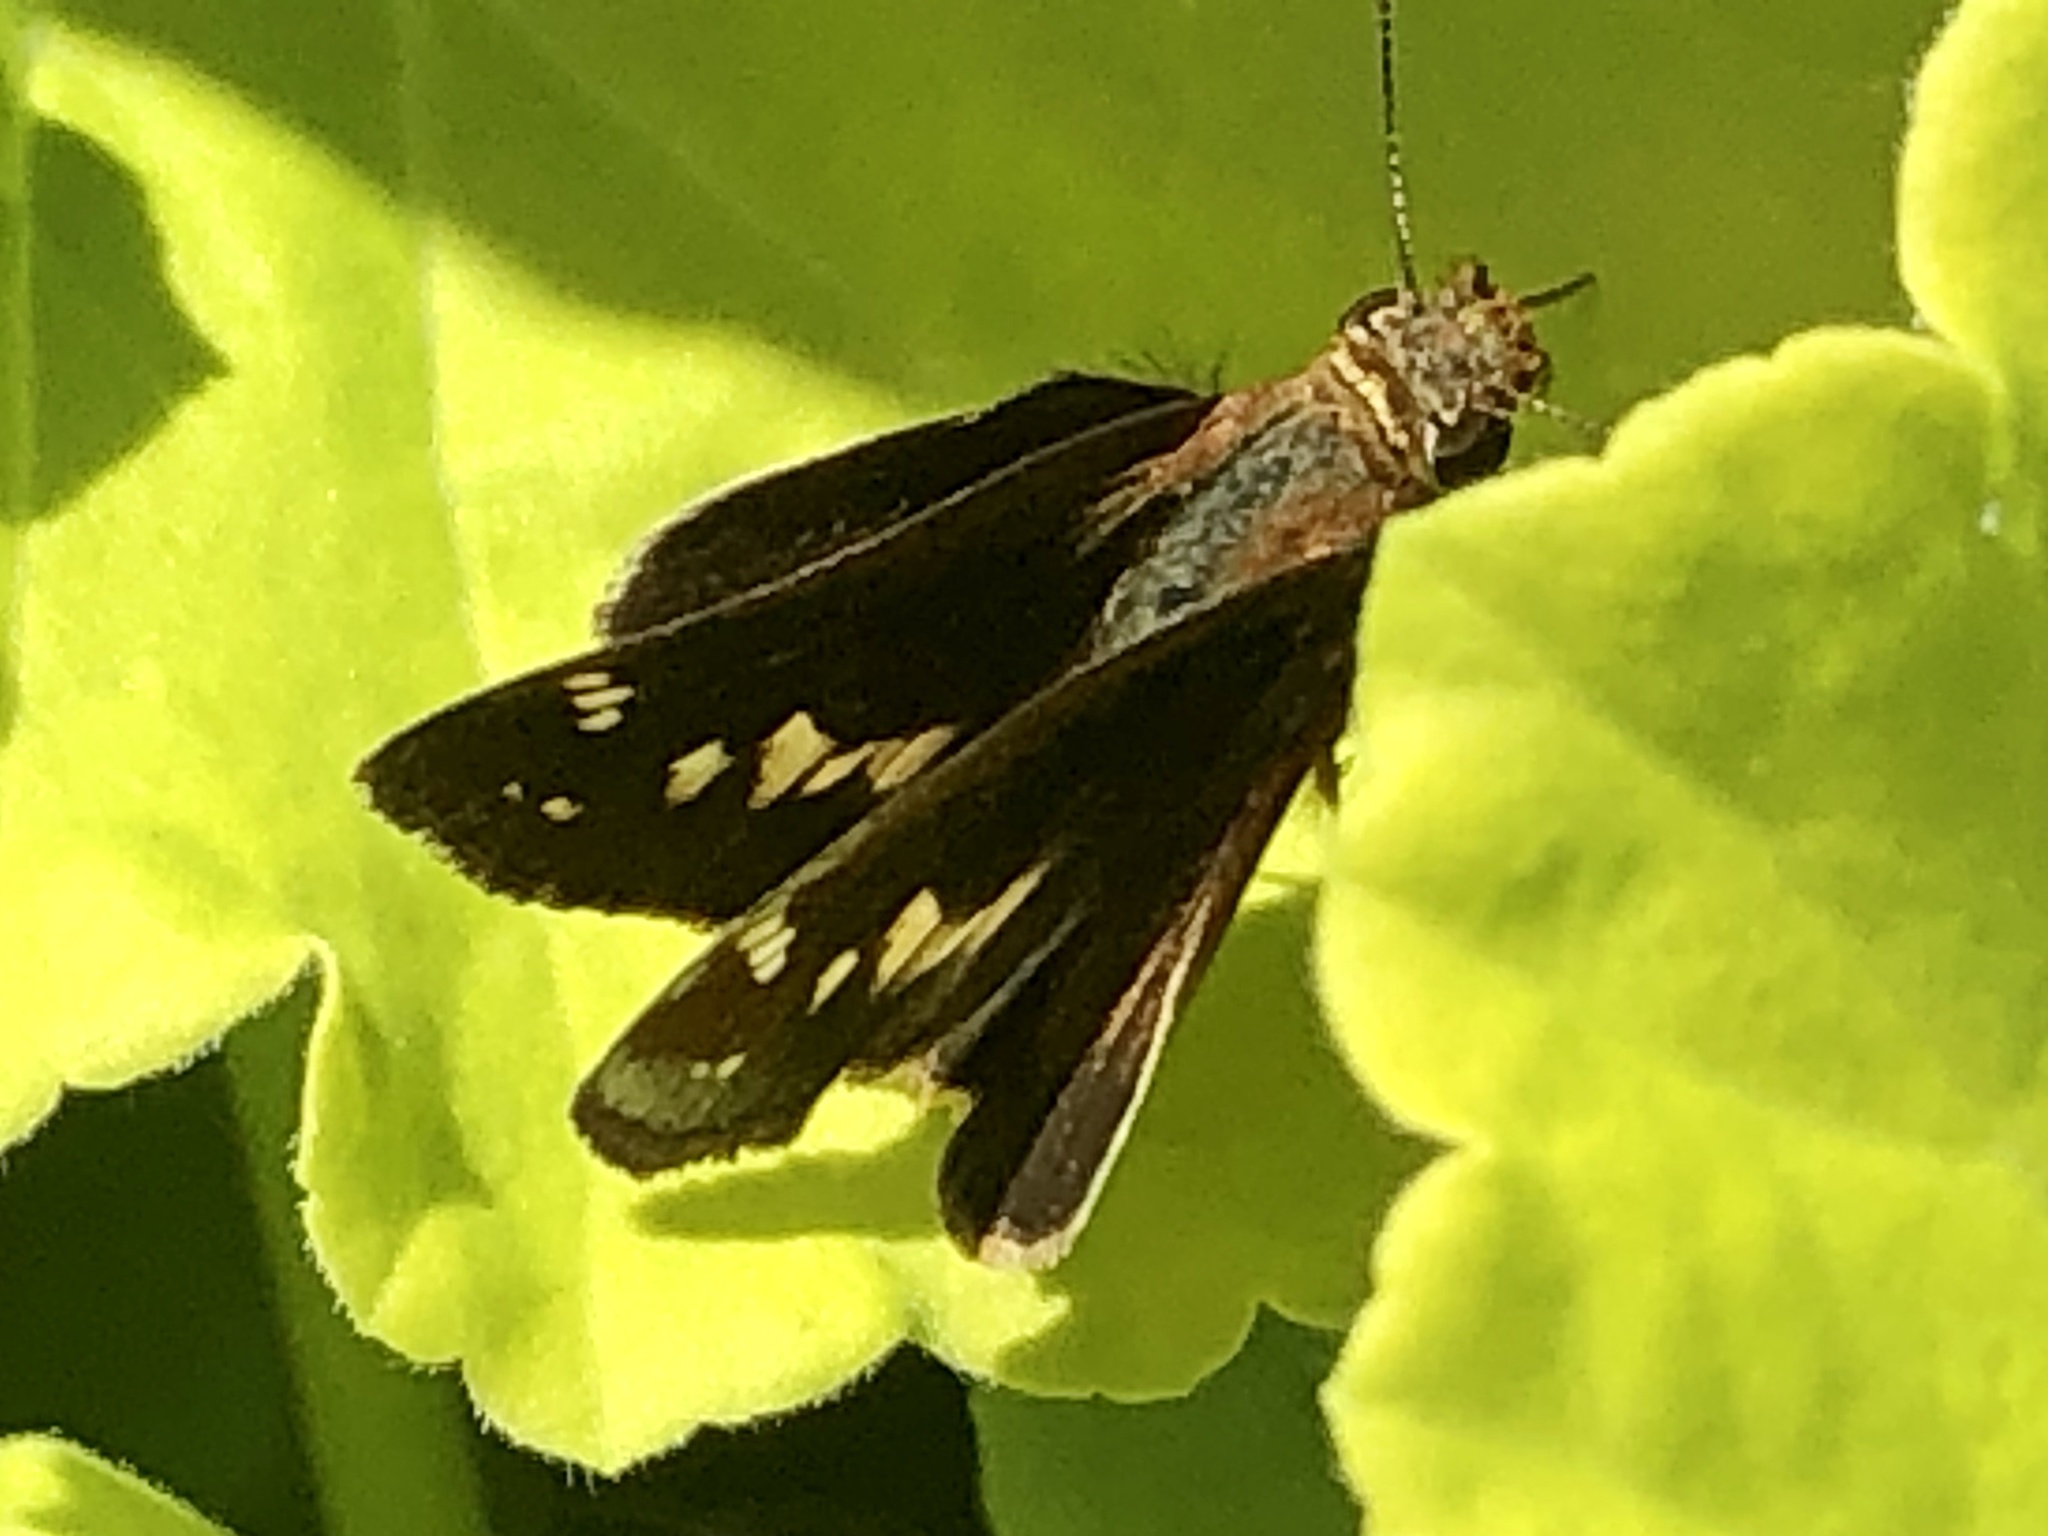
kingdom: Animalia
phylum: Arthropoda
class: Insecta
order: Lepidoptera
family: Hesperiidae
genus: Lon
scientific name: Lon zabulon
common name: Zabulon skipper
